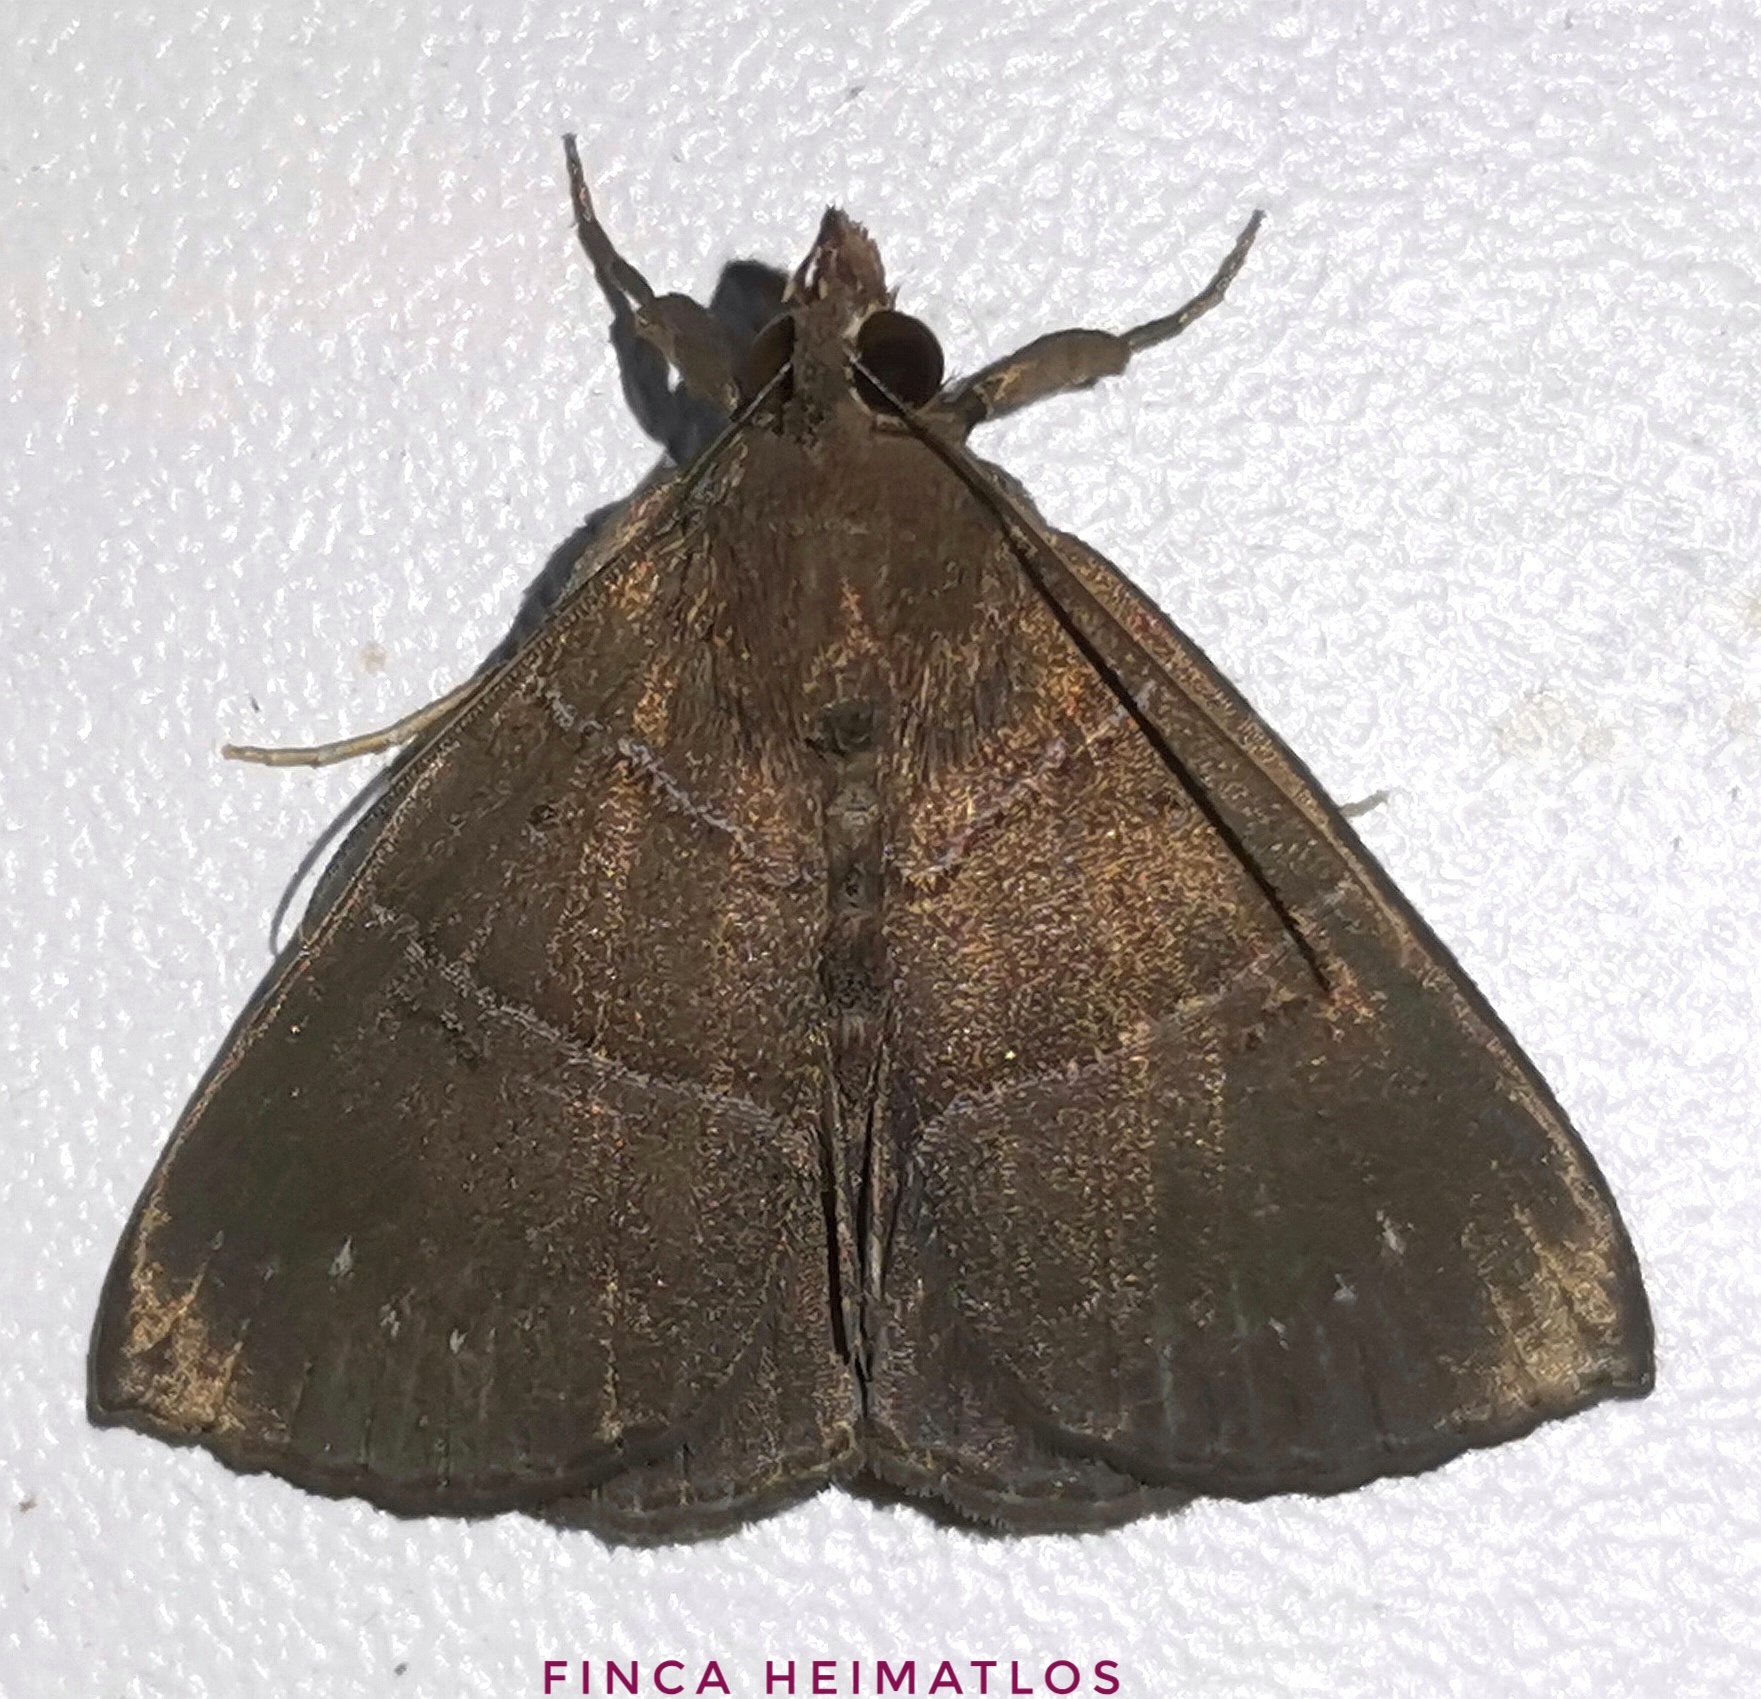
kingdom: Animalia
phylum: Arthropoda
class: Insecta
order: Lepidoptera
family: Erebidae
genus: Hypena
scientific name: Hypena munda
